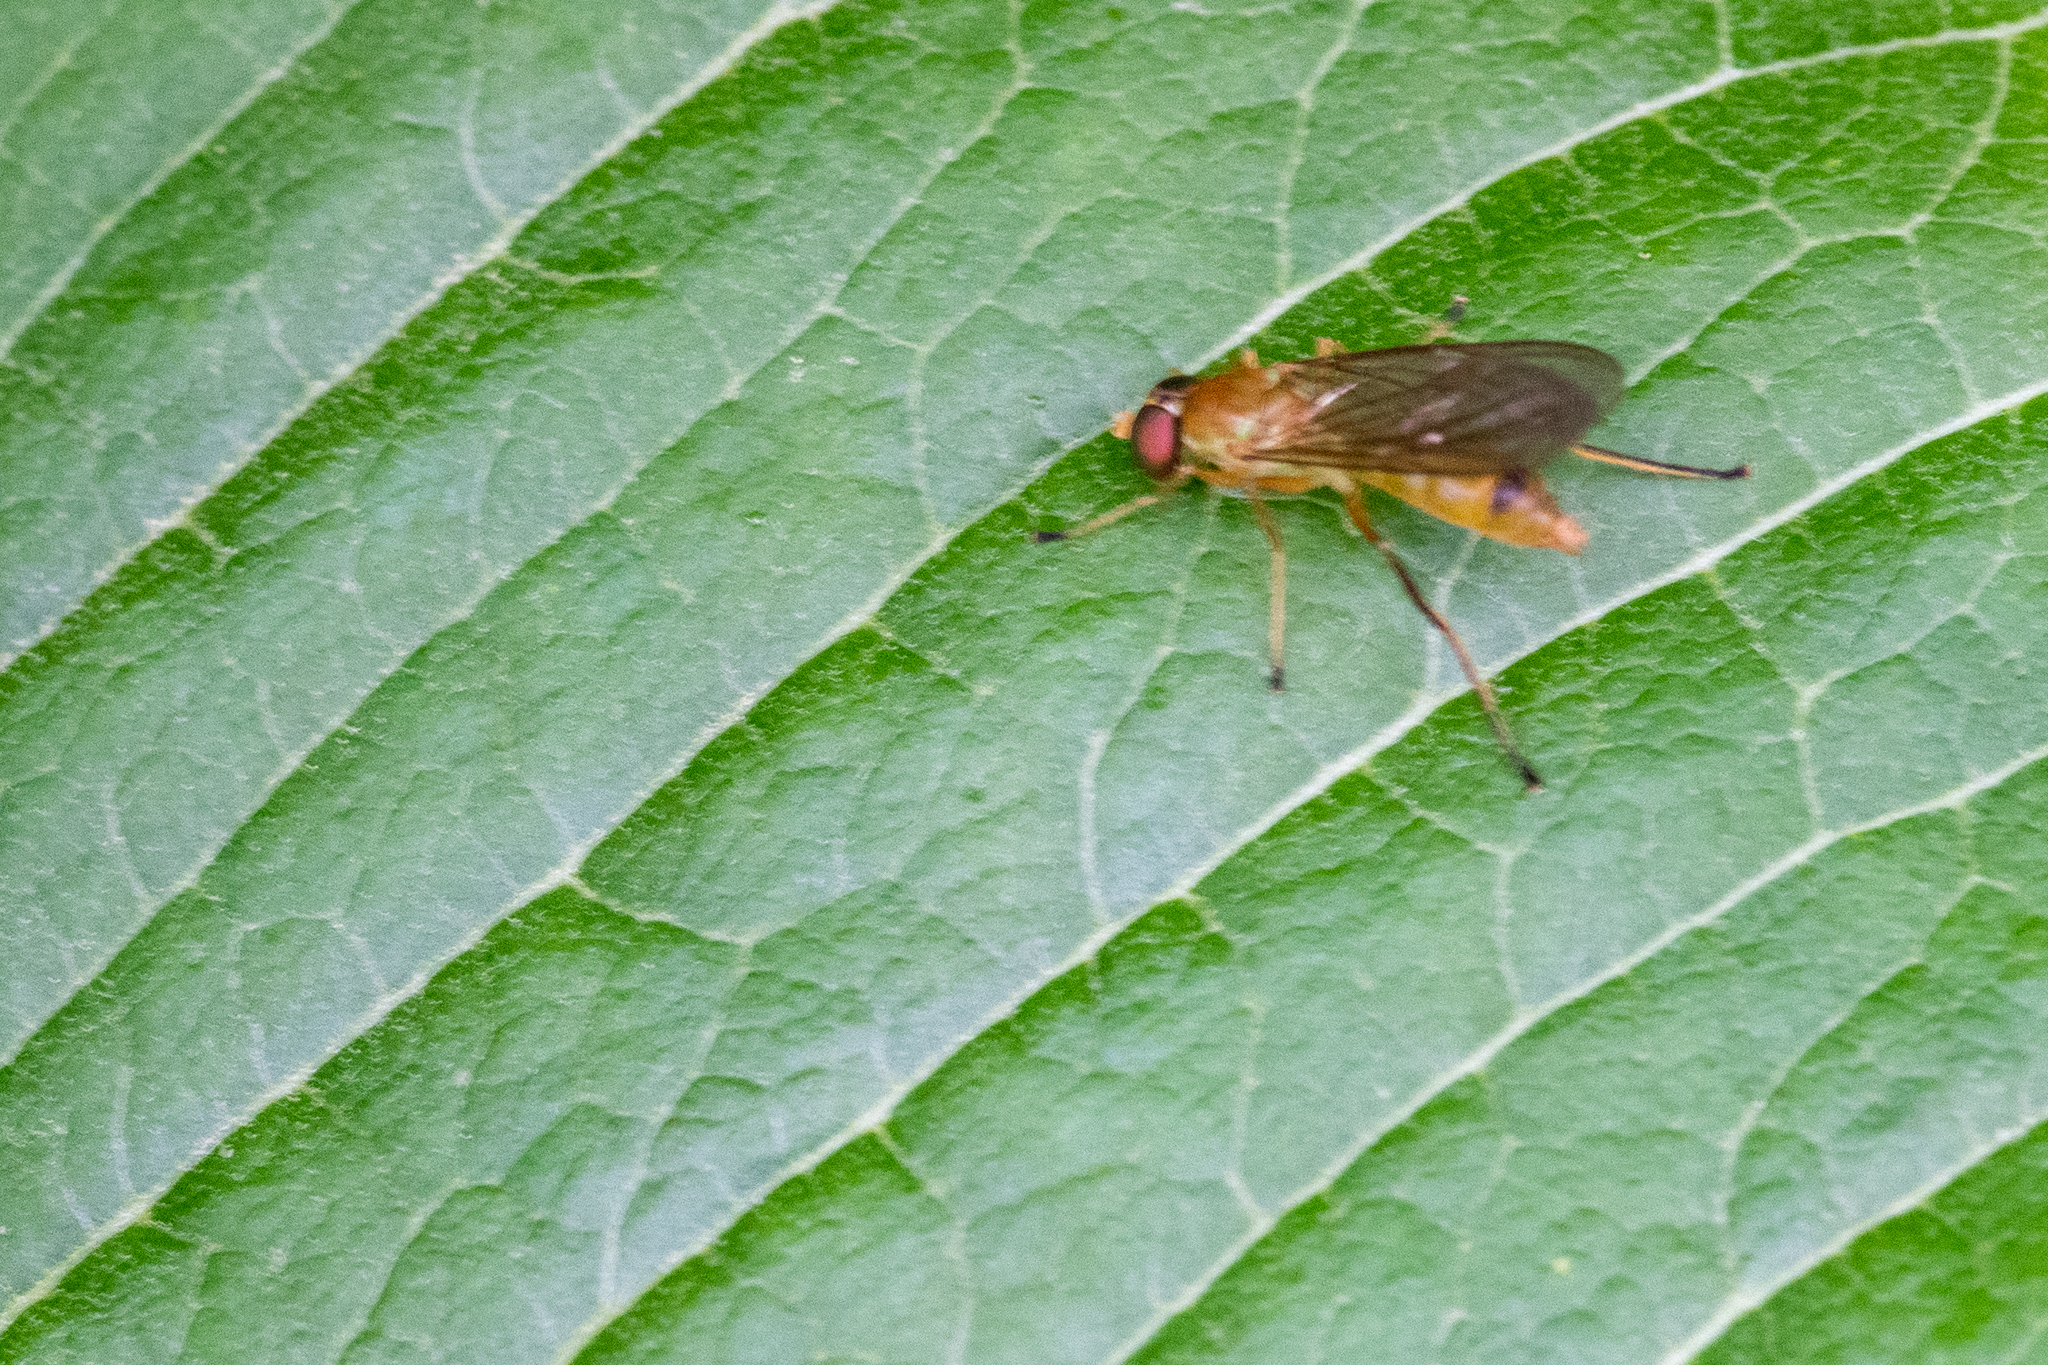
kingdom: Animalia
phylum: Arthropoda
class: Insecta
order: Diptera
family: Stratiomyidae
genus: Ptecticus
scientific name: Ptecticus trivittatus
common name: Compost fly
